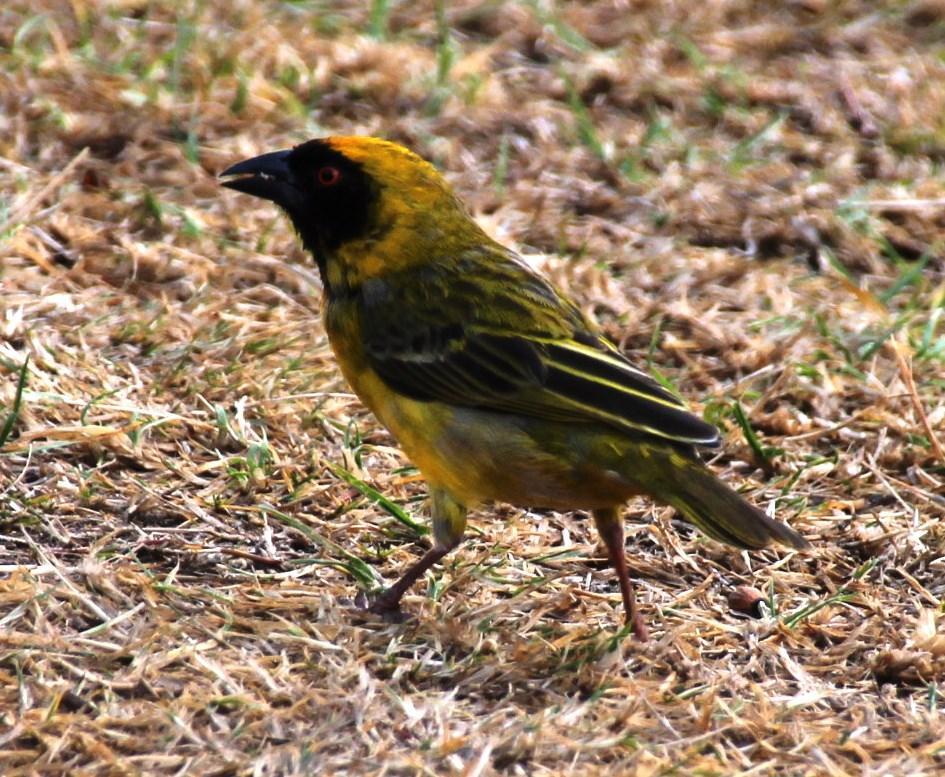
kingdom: Animalia
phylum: Chordata
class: Aves
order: Passeriformes
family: Ploceidae
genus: Ploceus
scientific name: Ploceus velatus
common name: Southern masked weaver
